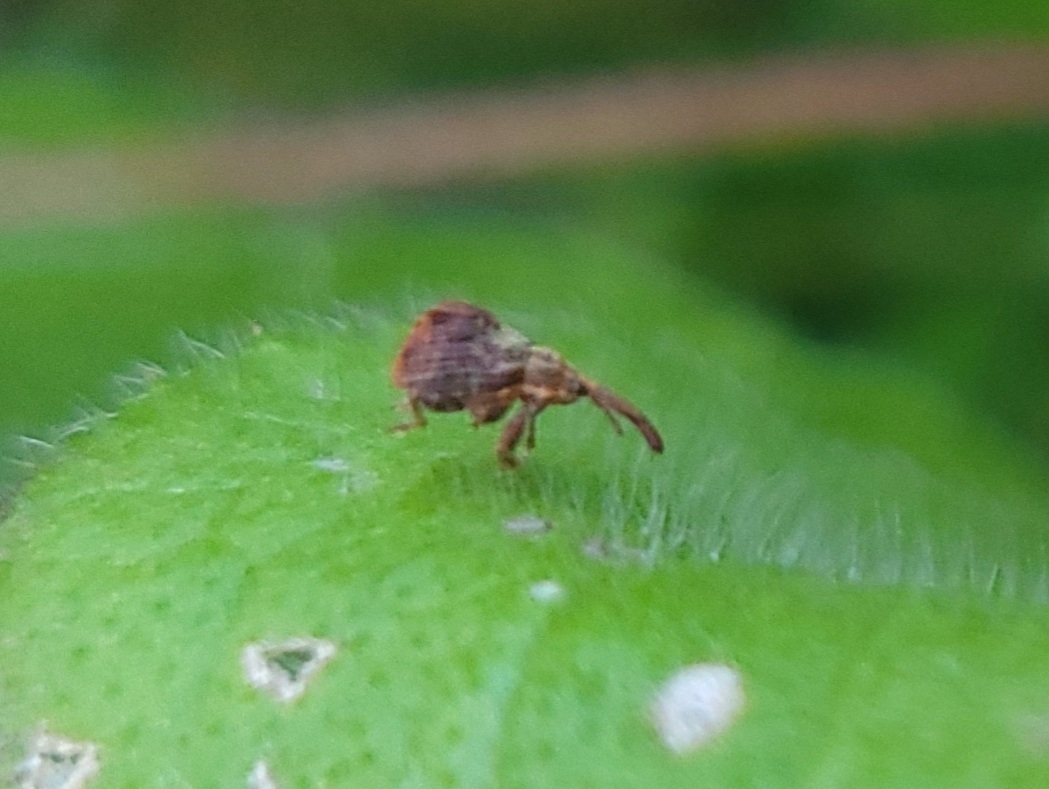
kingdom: Animalia
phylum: Arthropoda
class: Insecta
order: Coleoptera
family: Curculionidae
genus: Anthonomus
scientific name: Anthonomus quadrigibbus
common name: Apple curculio
